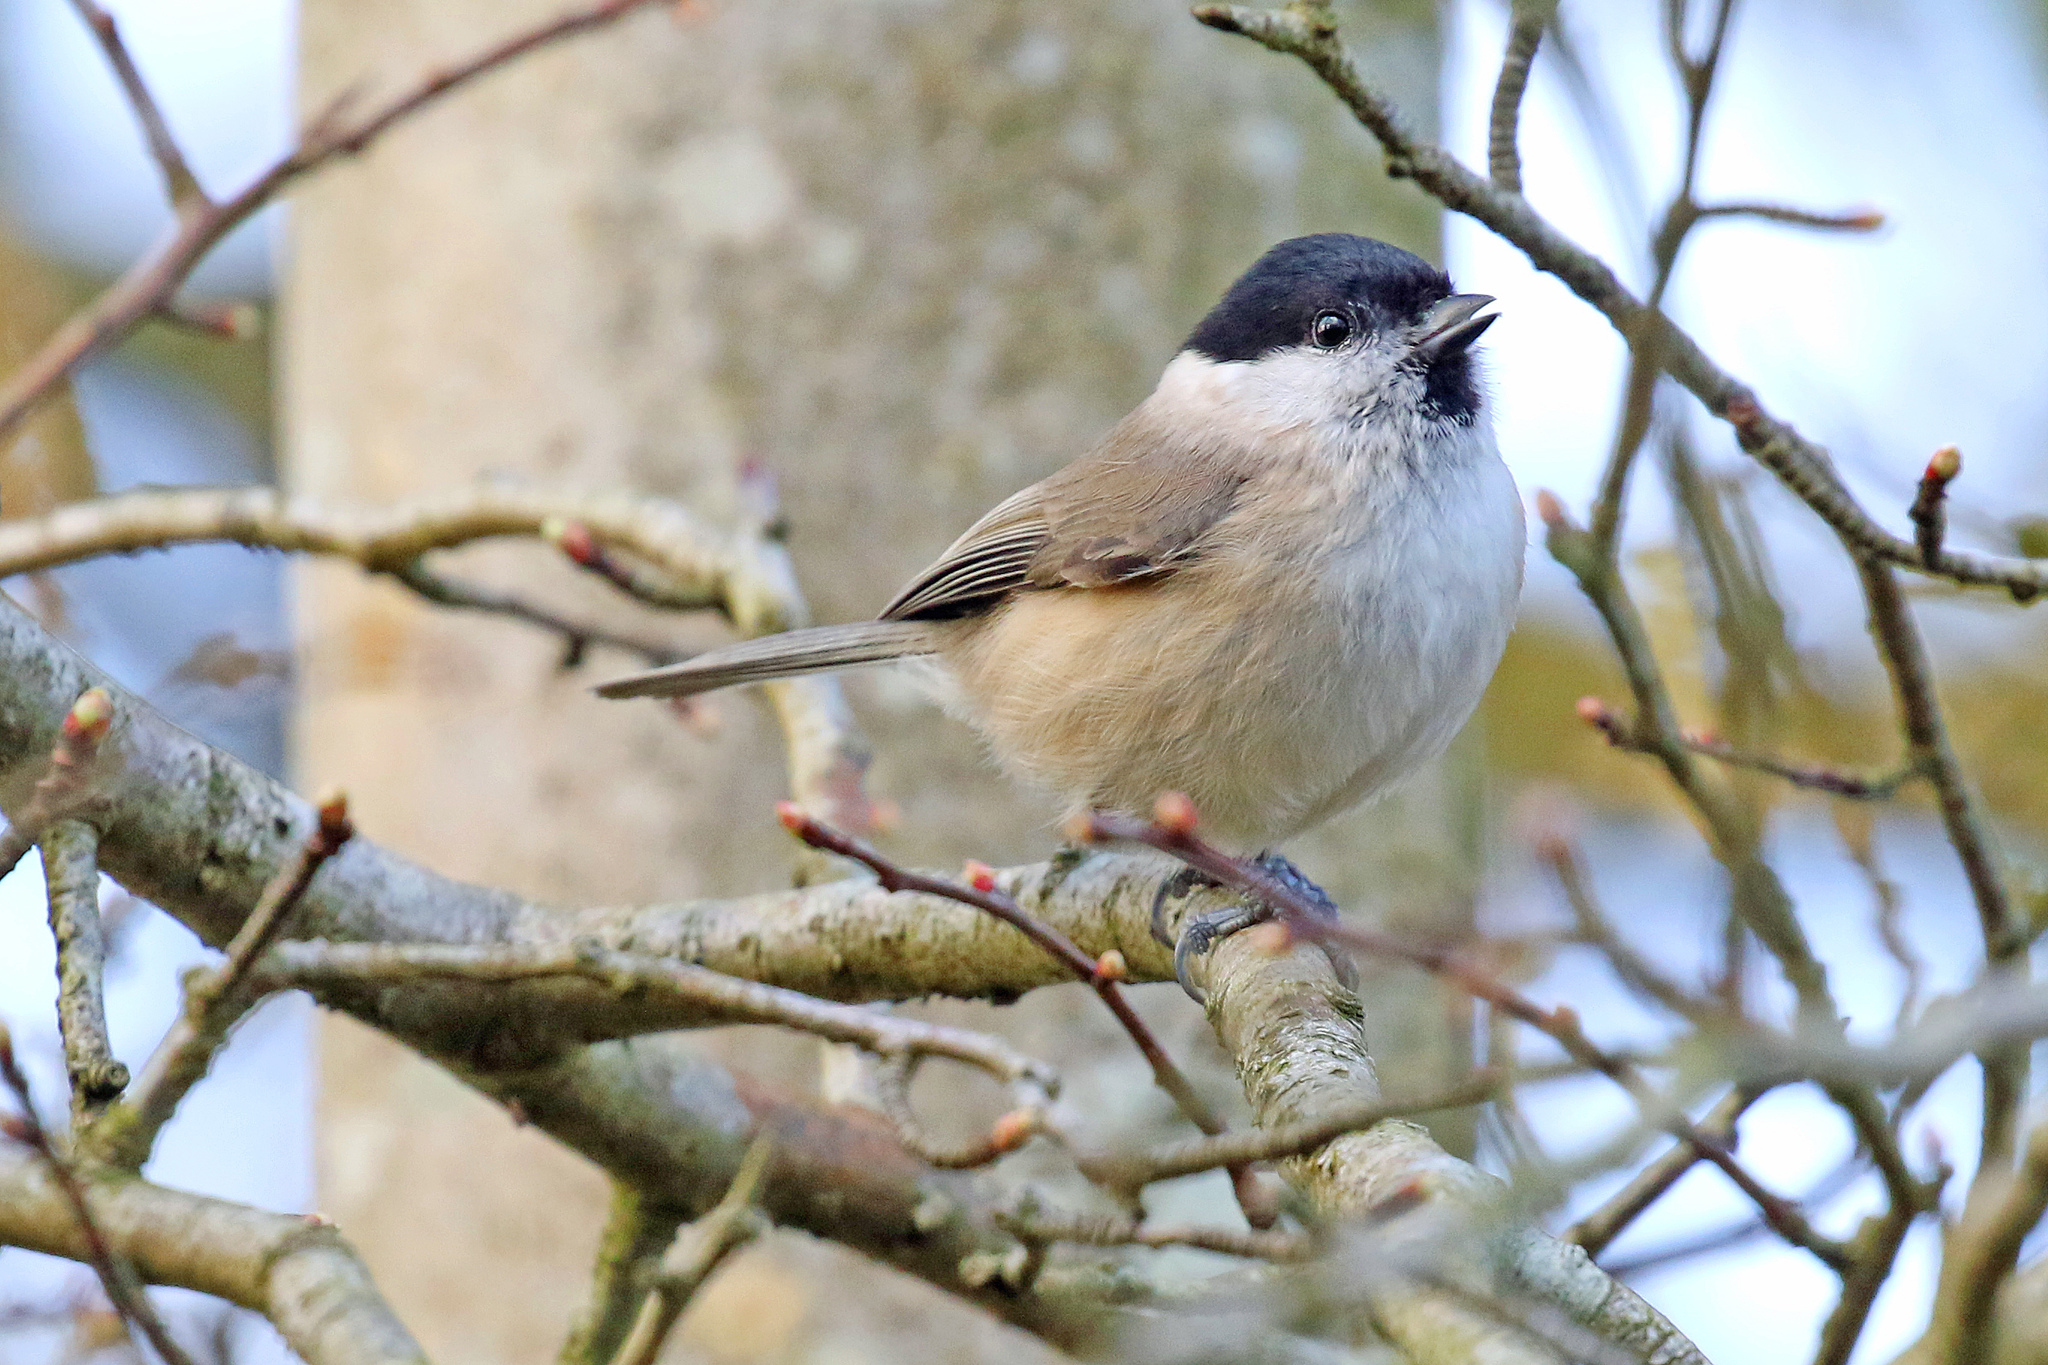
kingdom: Animalia
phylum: Chordata
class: Aves
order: Passeriformes
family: Paridae
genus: Poecile
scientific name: Poecile palustris
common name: Marsh tit
